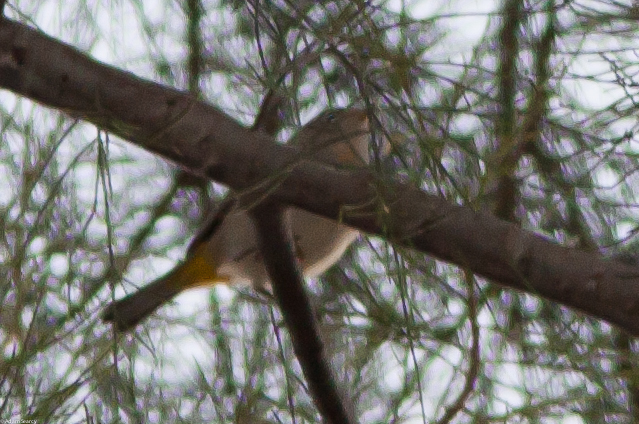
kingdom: Animalia
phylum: Chordata
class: Aves
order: Passeriformes
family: Parulidae
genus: Leiothlypis
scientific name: Leiothlypis virginiae
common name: Virginia's warbler
